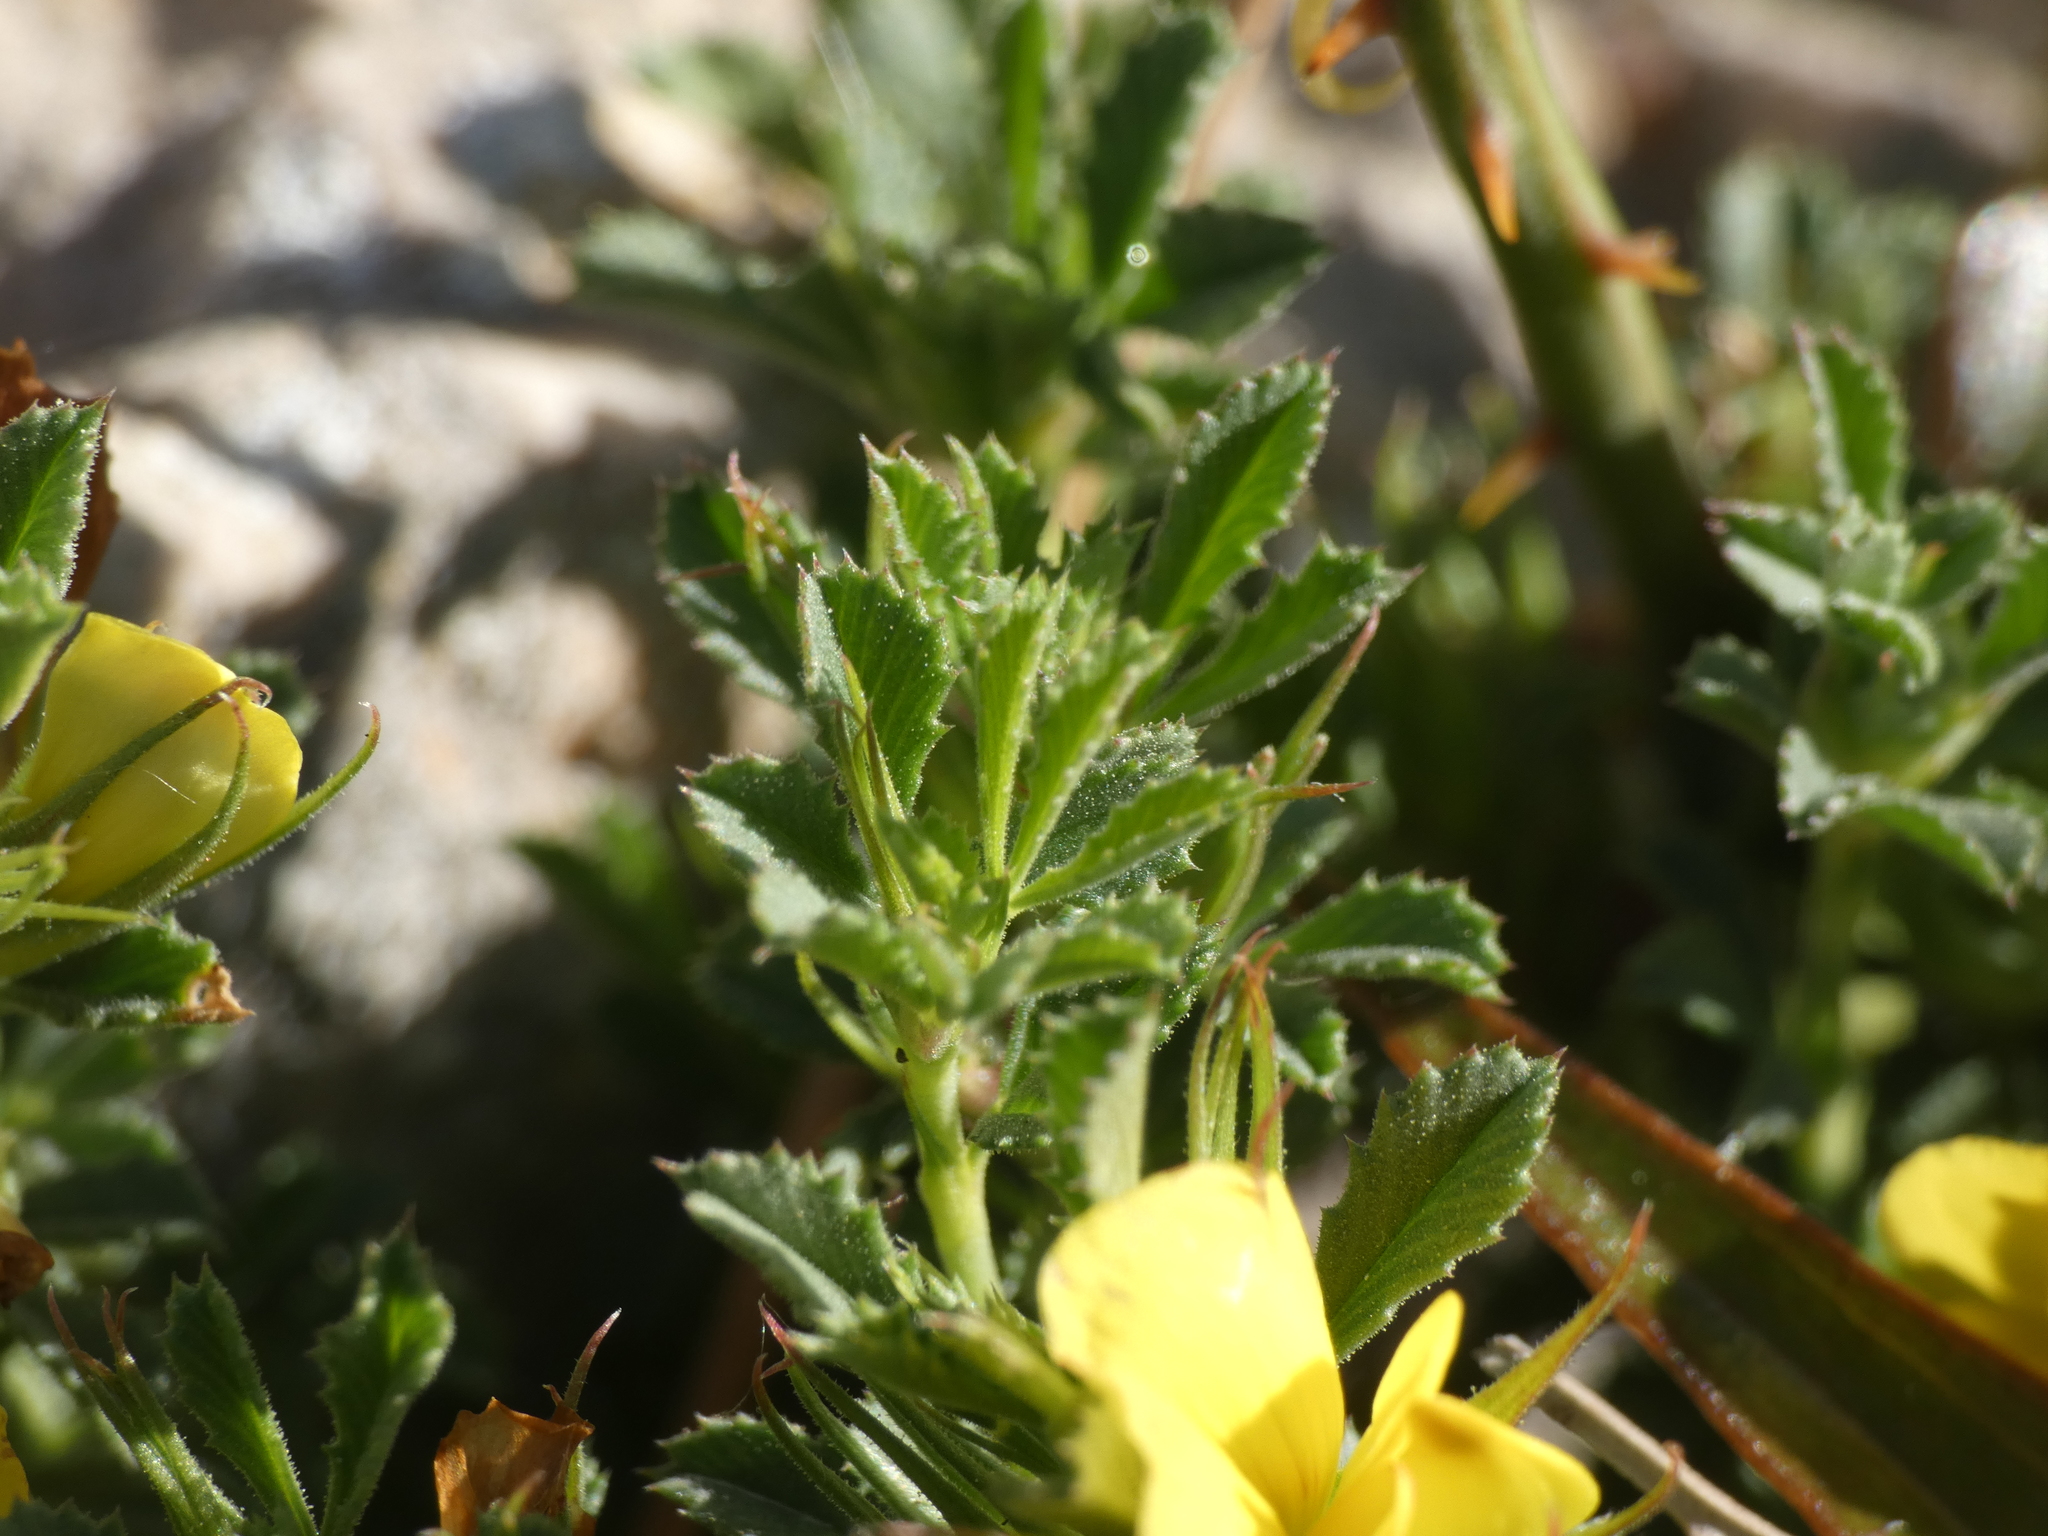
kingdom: Plantae
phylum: Tracheophyta
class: Magnoliopsida
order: Fabales
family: Fabaceae
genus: Ononis
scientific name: Ononis minutissima
